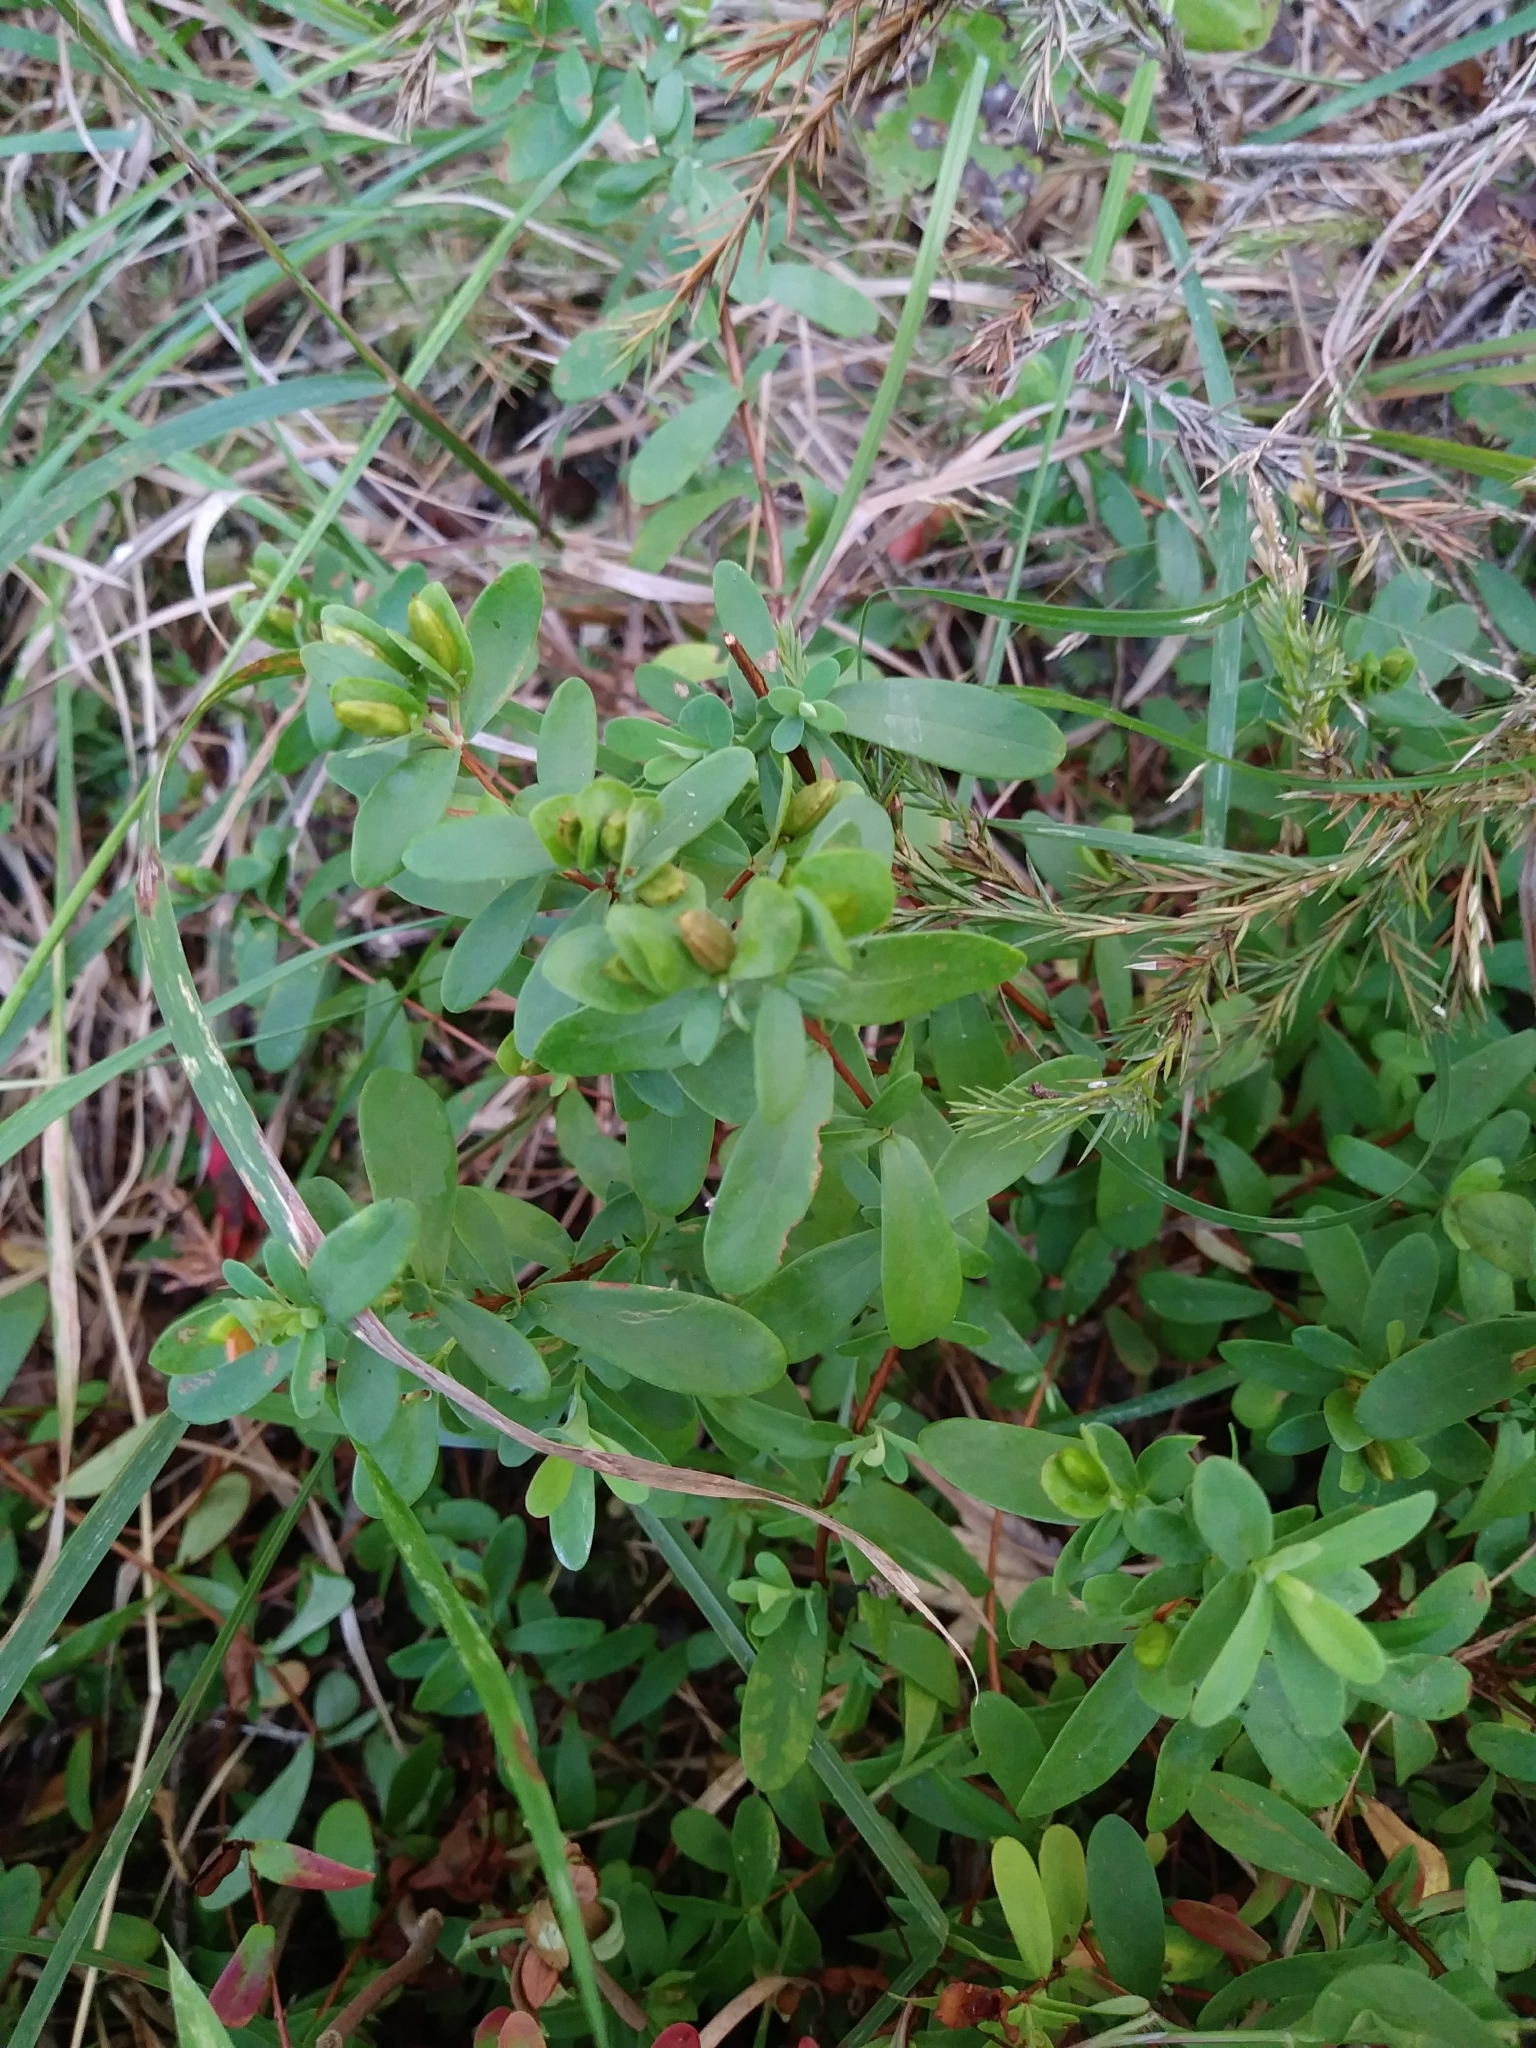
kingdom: Plantae
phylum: Tracheophyta
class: Magnoliopsida
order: Malpighiales
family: Hypericaceae
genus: Hypericum
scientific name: Hypericum hypericoides
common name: St. andrew's cross
